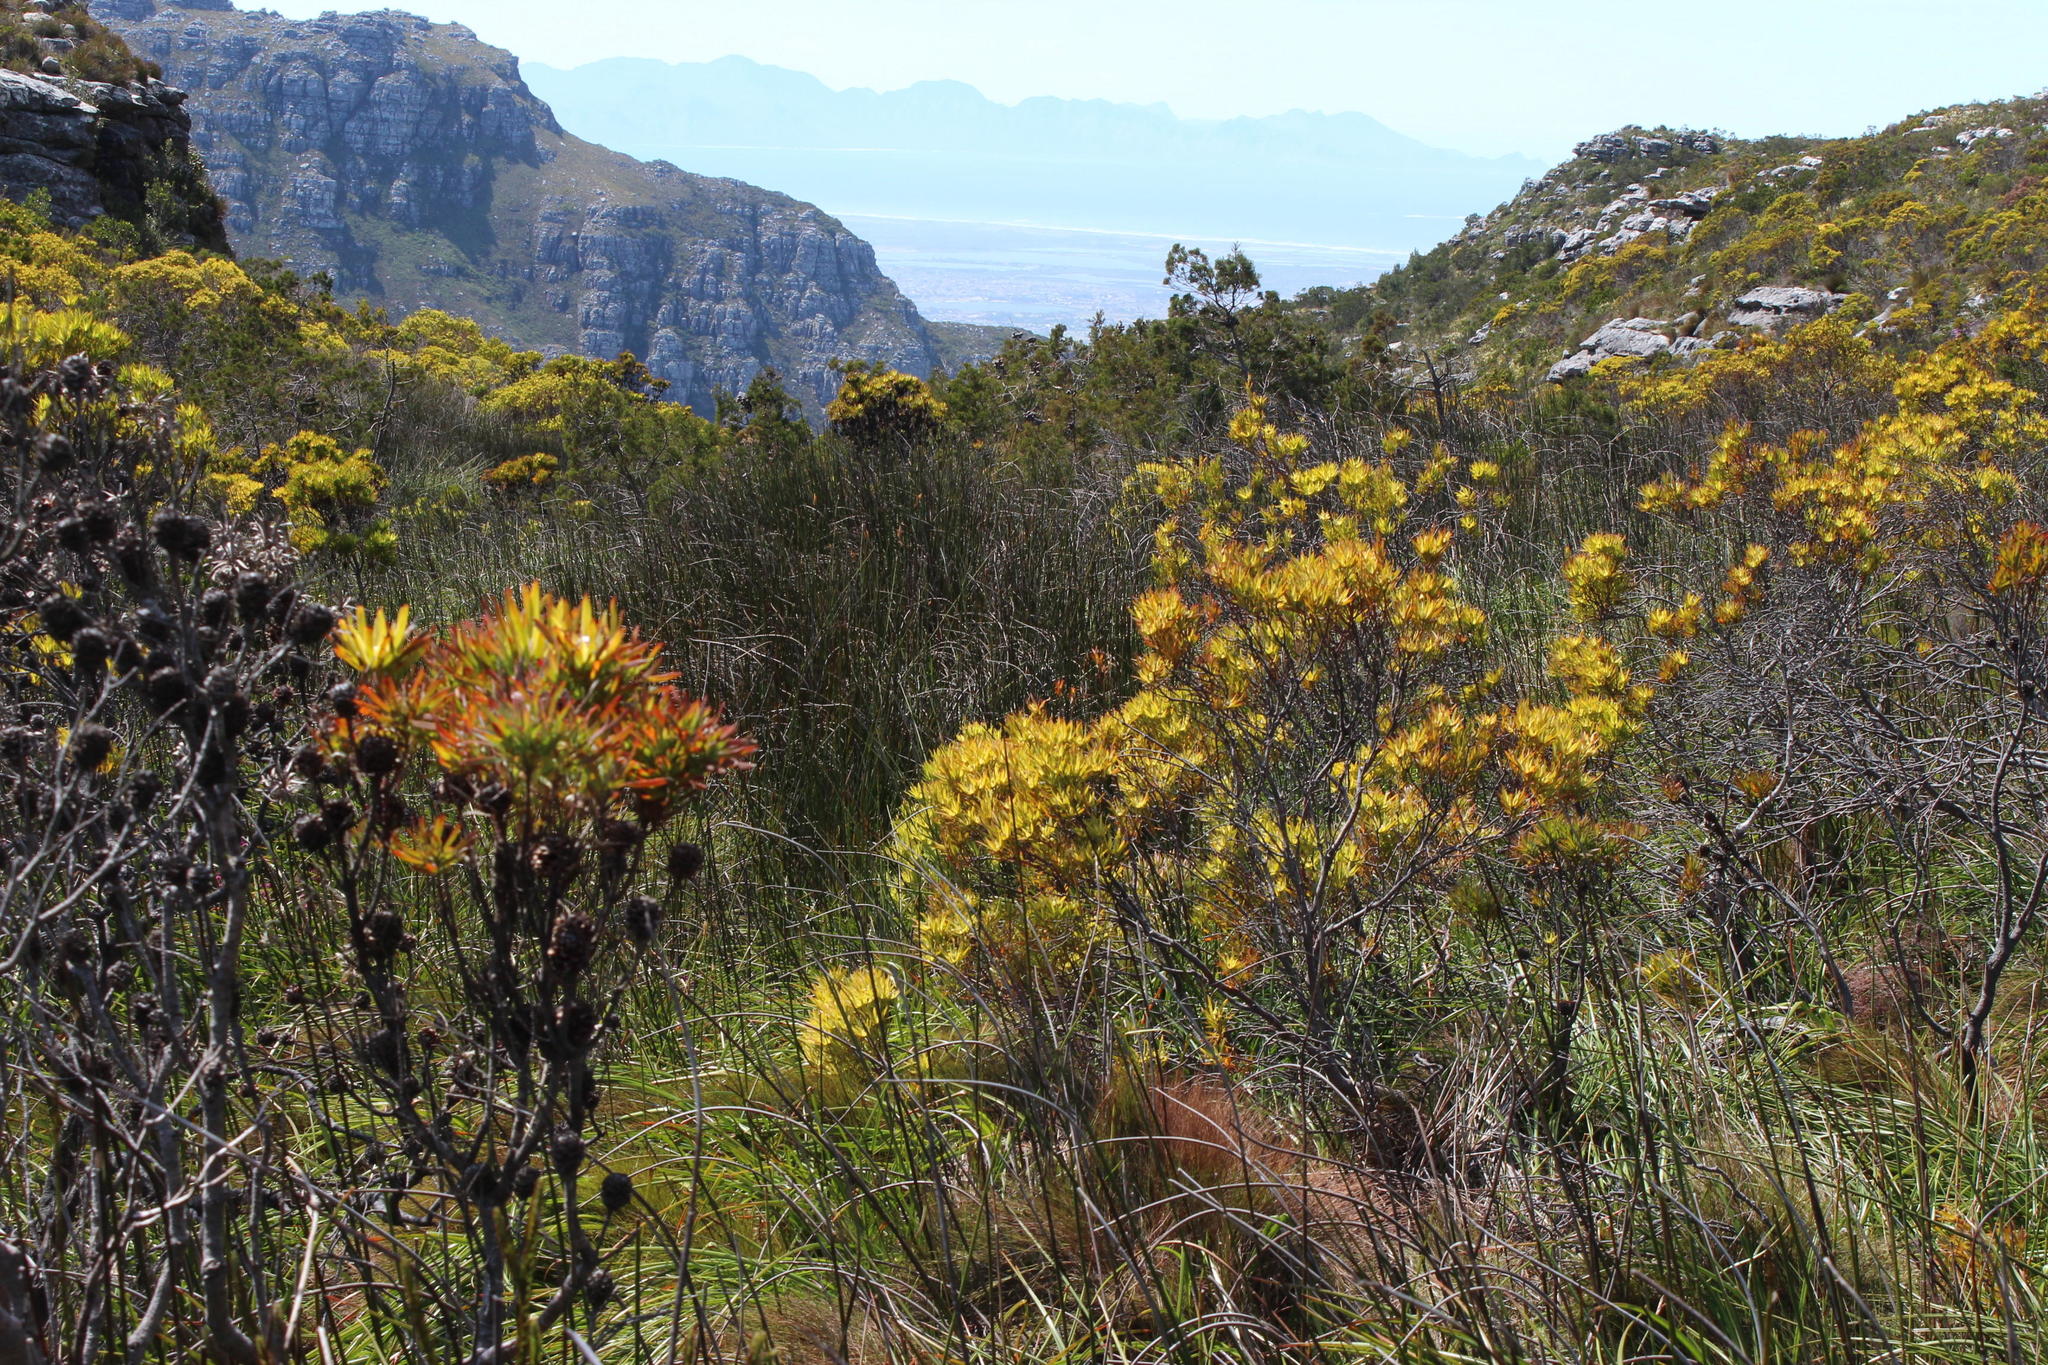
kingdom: Plantae
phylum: Tracheophyta
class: Magnoliopsida
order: Proteales
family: Proteaceae
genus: Leucadendron
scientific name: Leucadendron xanthoconus
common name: Sickle-leaf conebush
